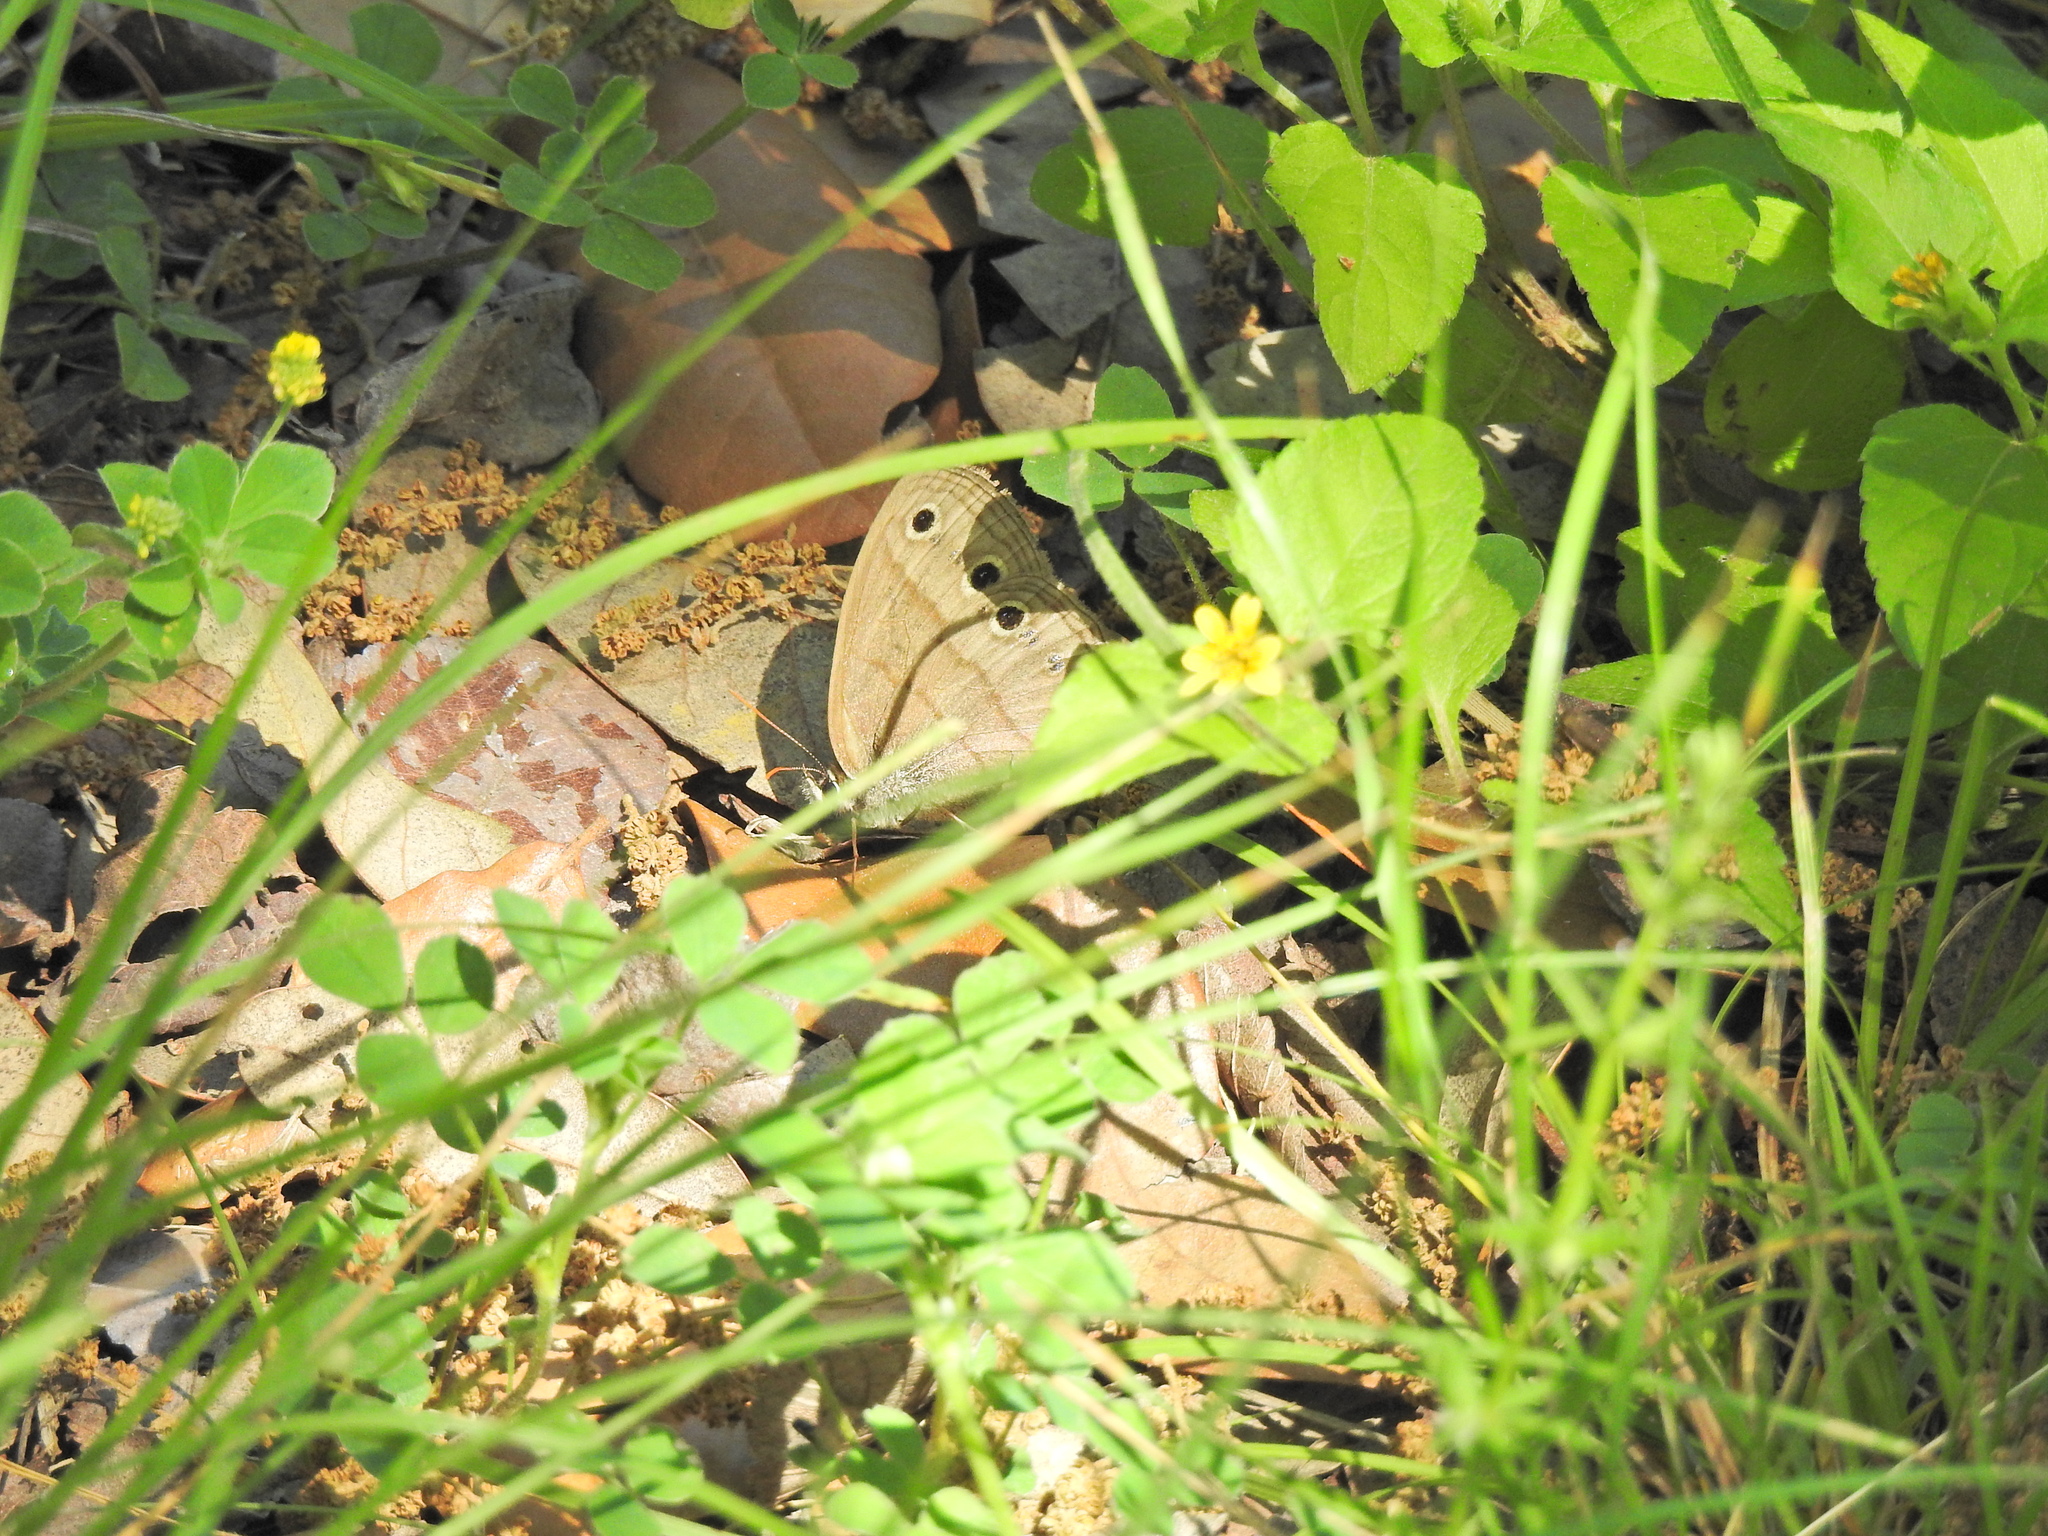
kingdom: Animalia
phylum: Arthropoda
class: Insecta
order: Lepidoptera
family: Nymphalidae
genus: Euptychia
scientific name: Euptychia cymela
